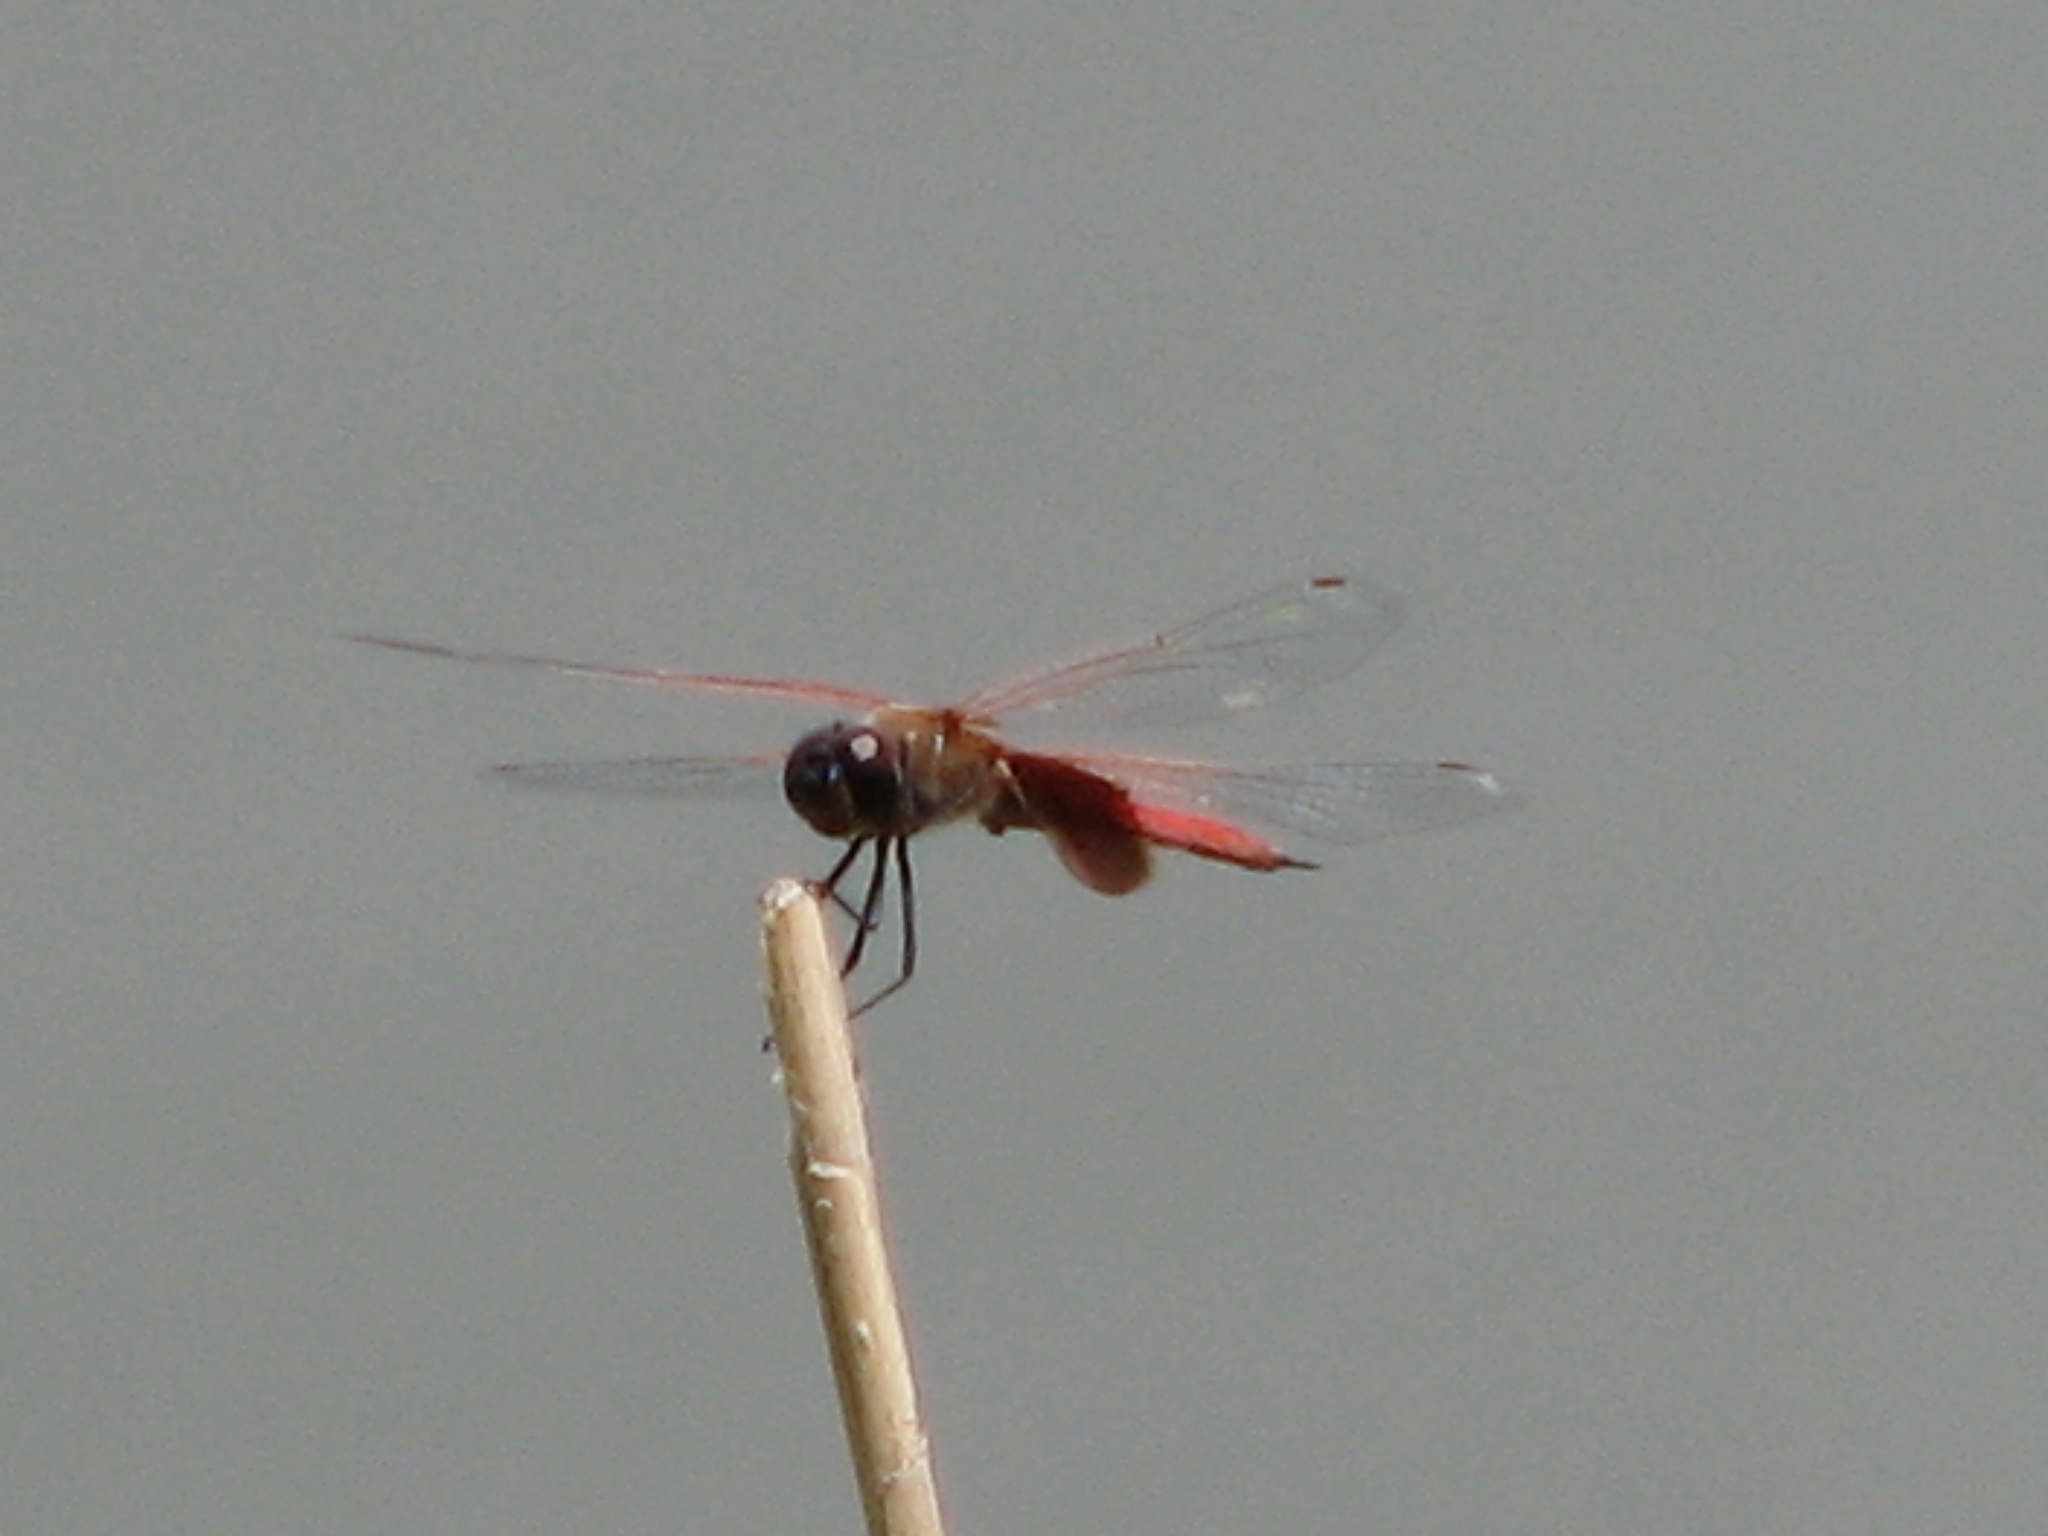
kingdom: Animalia
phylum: Arthropoda
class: Insecta
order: Odonata
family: Libellulidae
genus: Tramea
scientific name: Tramea insularis
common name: Antillean saddlebags
